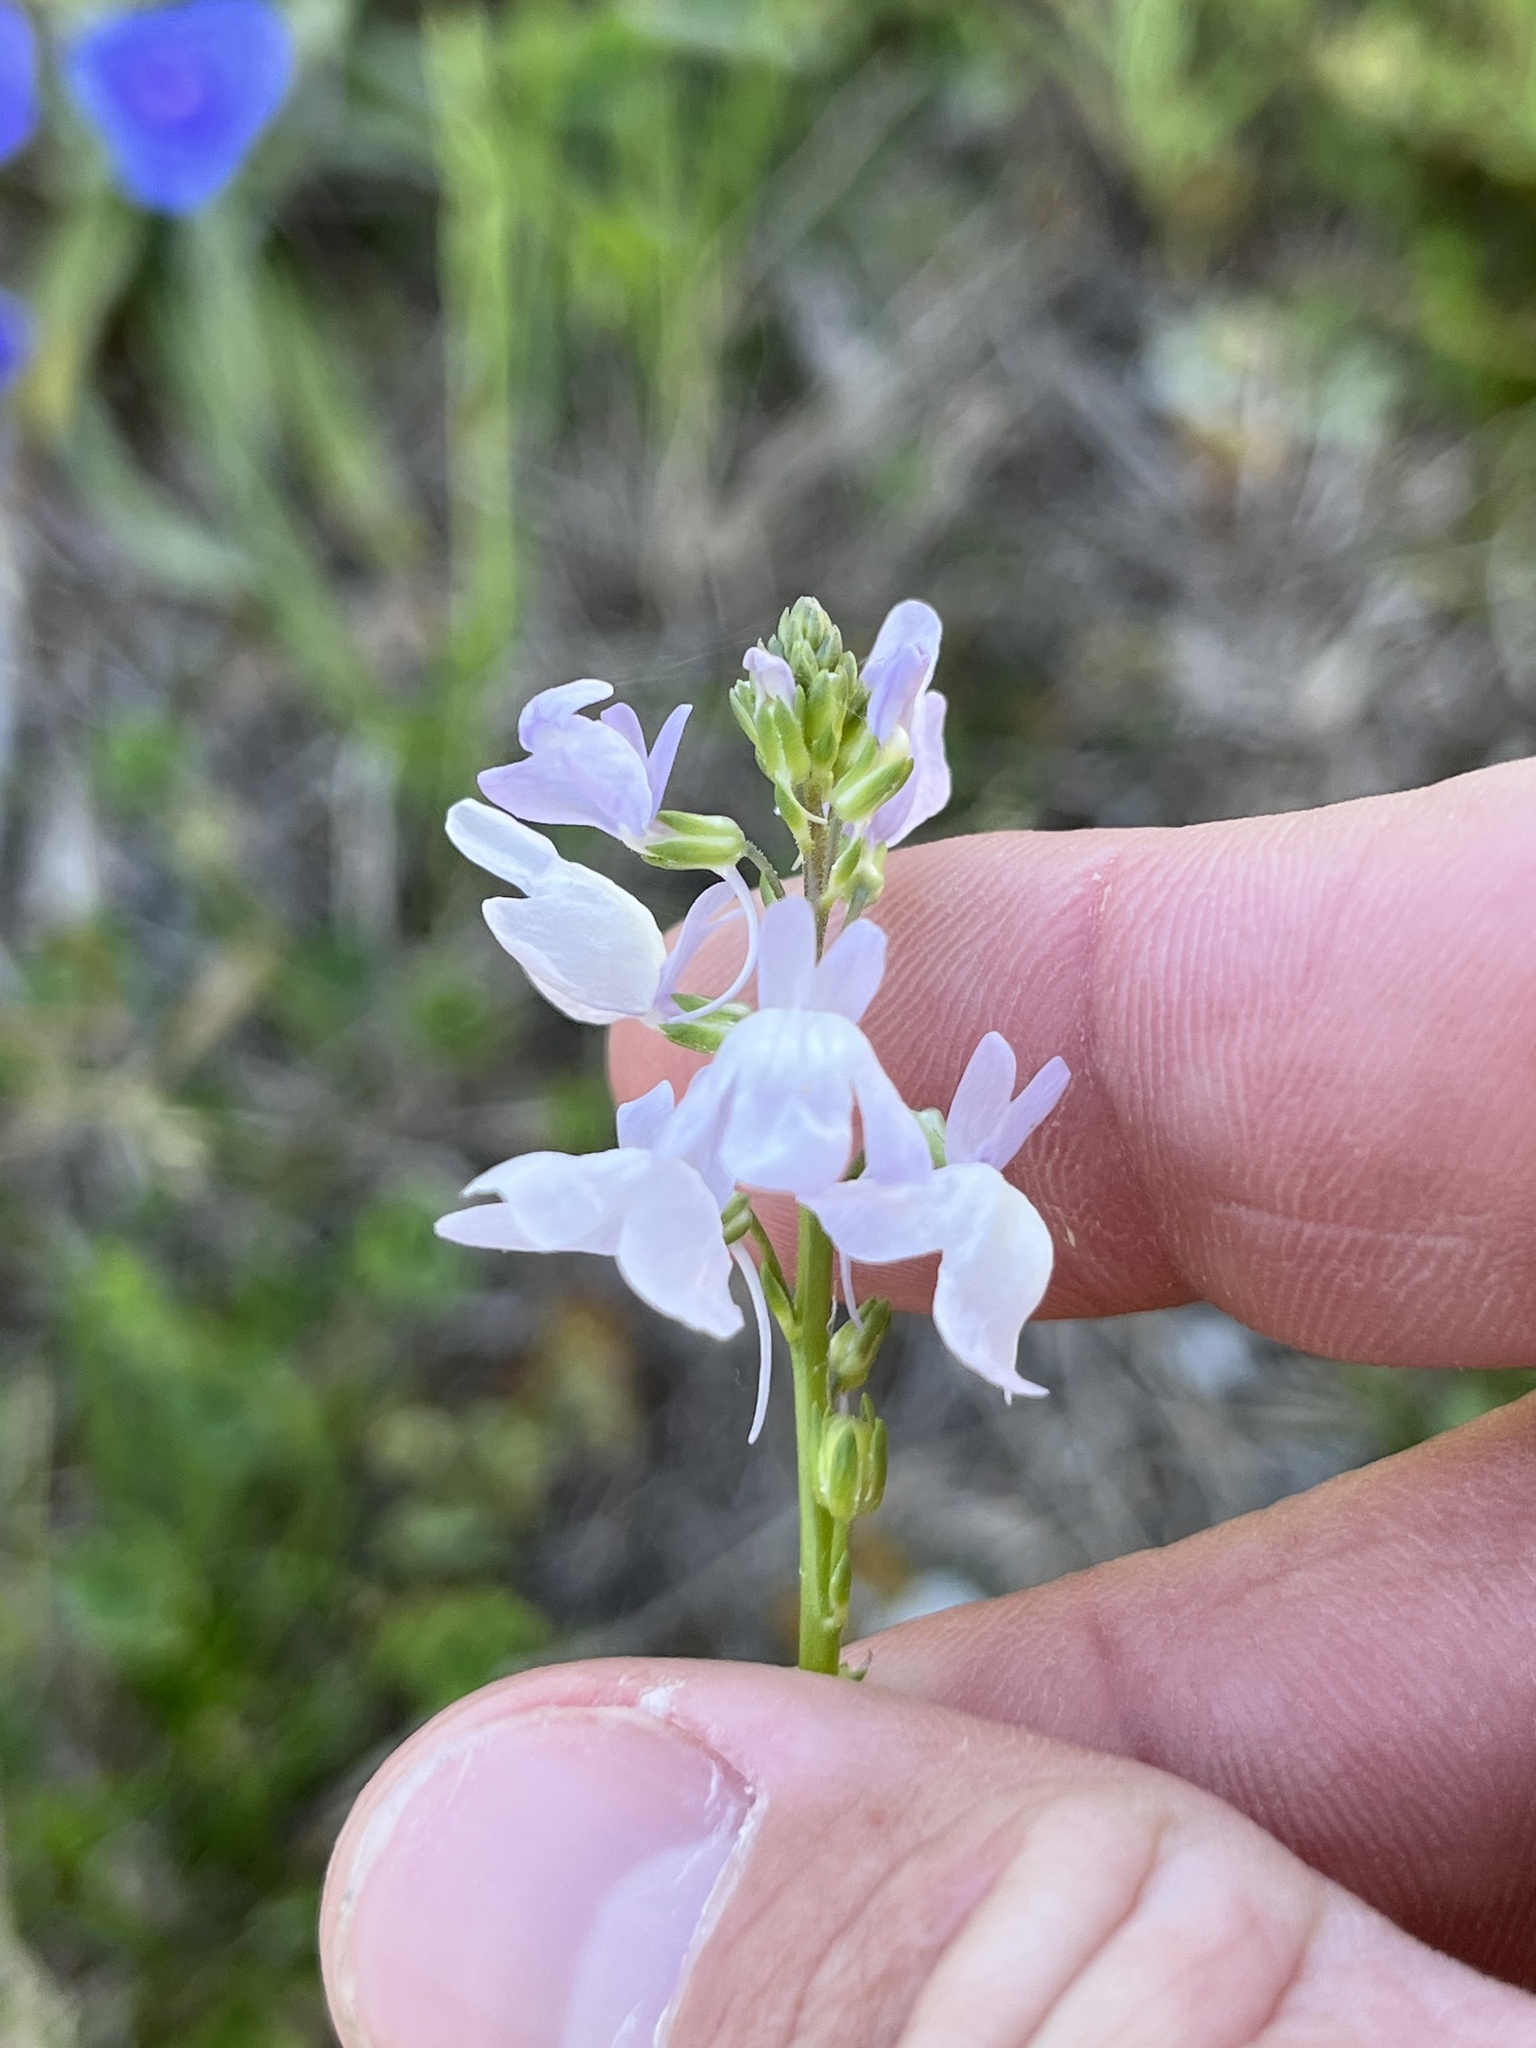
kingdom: Plantae
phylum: Tracheophyta
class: Magnoliopsida
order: Lamiales
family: Plantaginaceae
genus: Nuttallanthus
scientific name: Nuttallanthus texanus
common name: Texas toadflax
